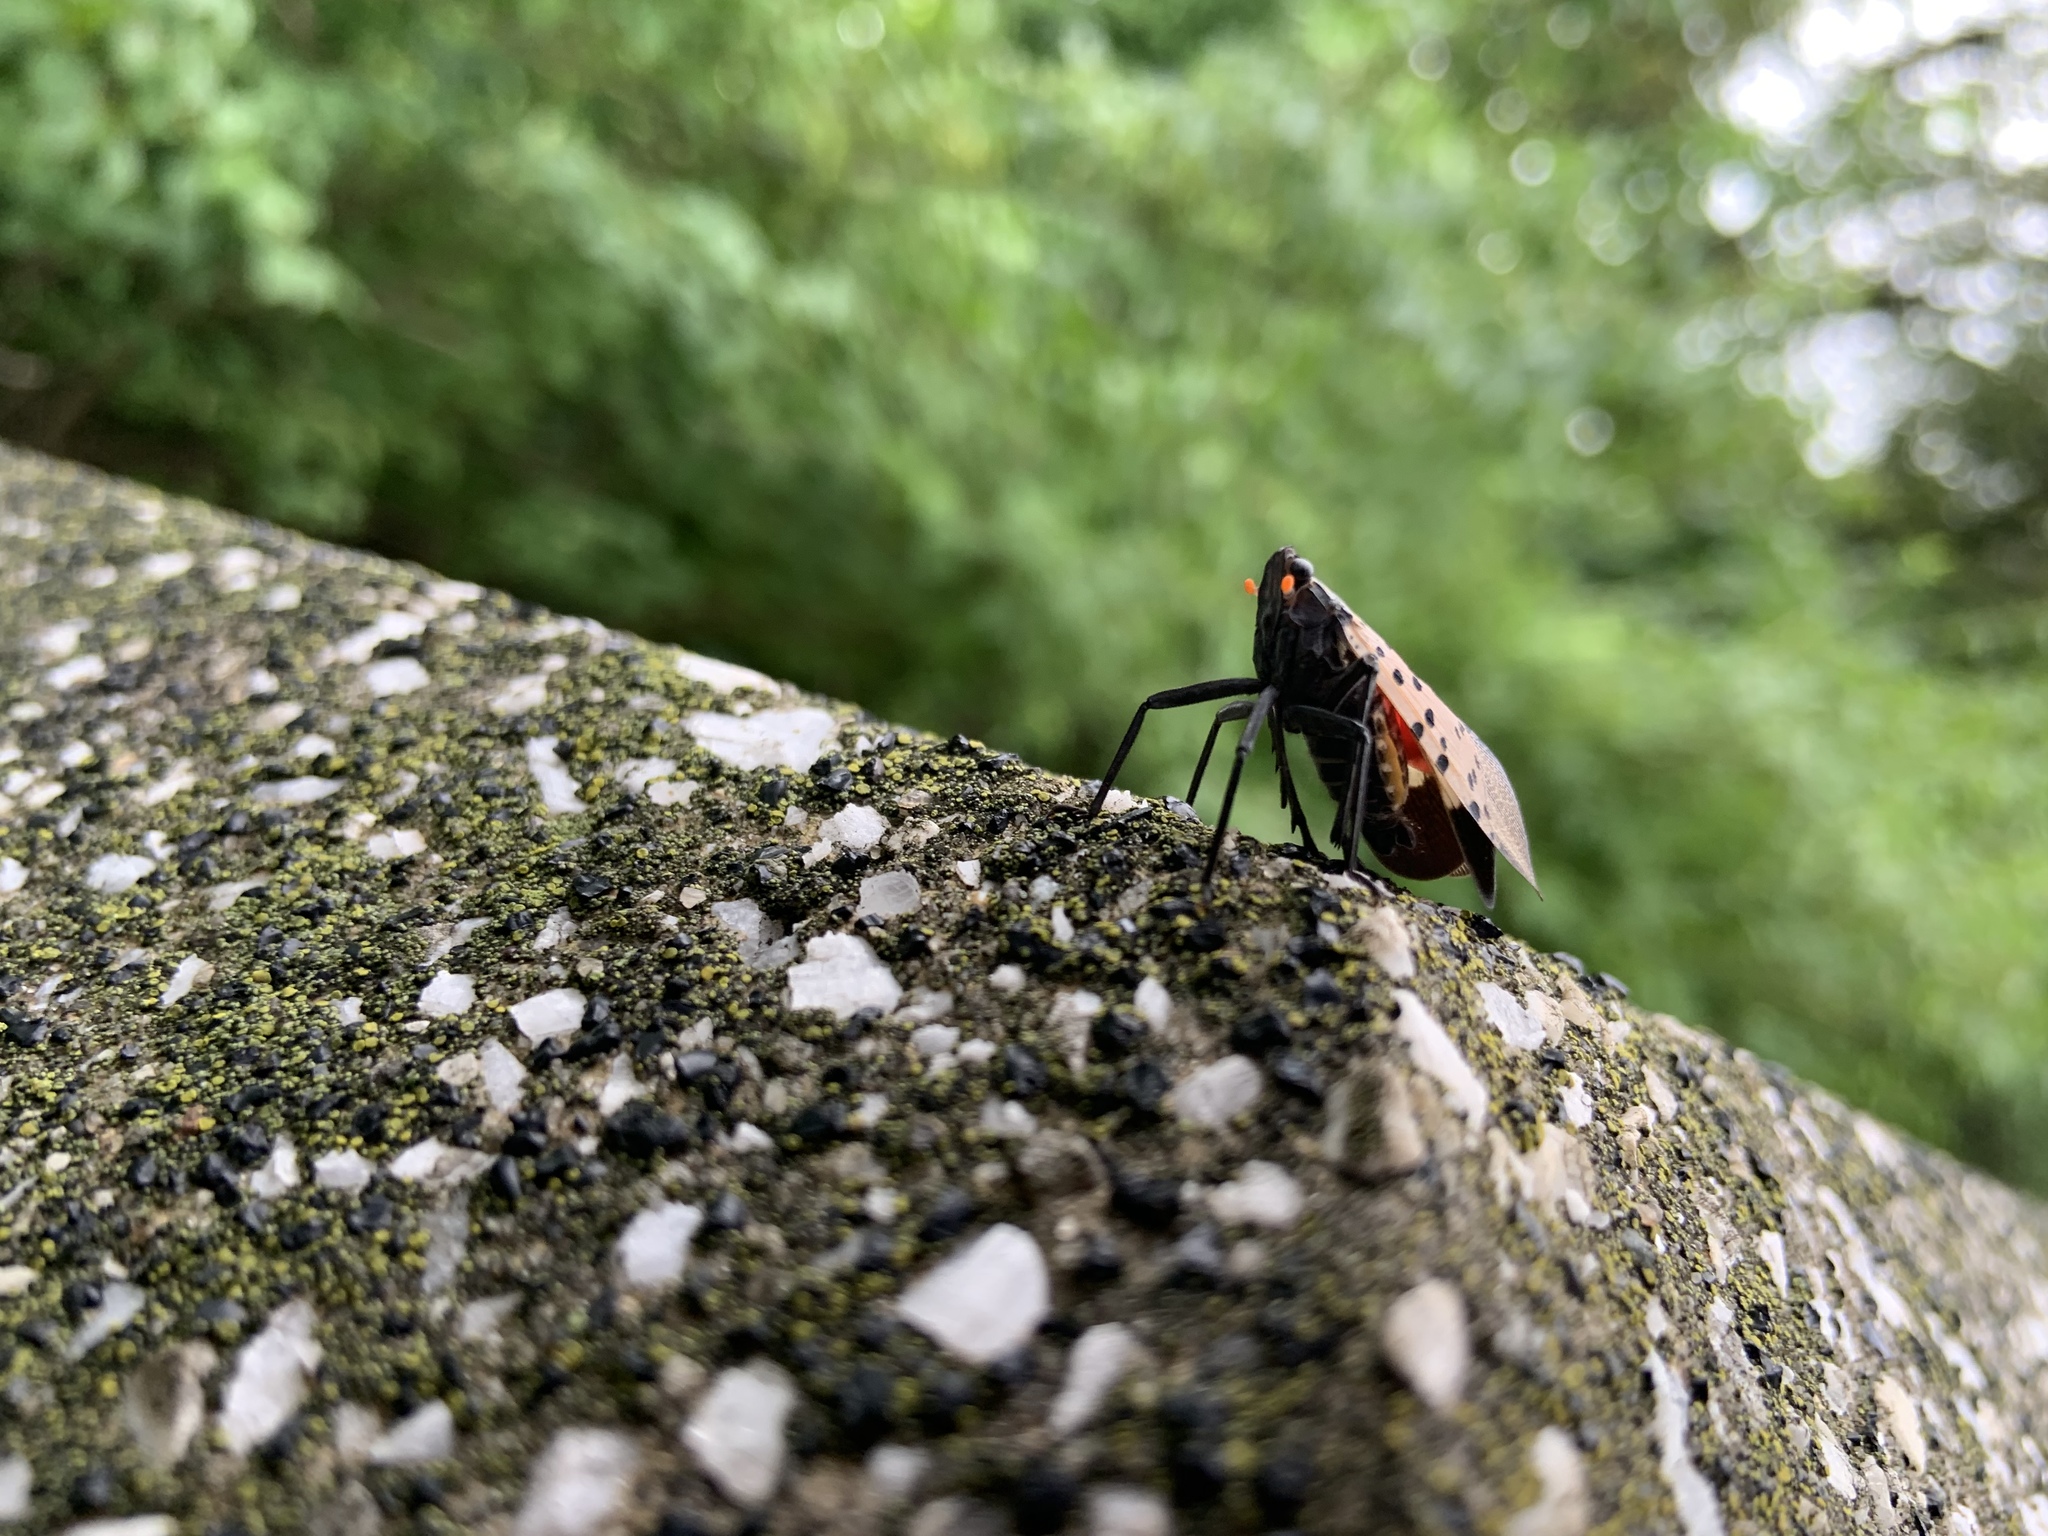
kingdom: Animalia
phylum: Arthropoda
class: Insecta
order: Hemiptera
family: Fulgoridae
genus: Lycorma
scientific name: Lycorma delicatula
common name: Spotted lanternfly
